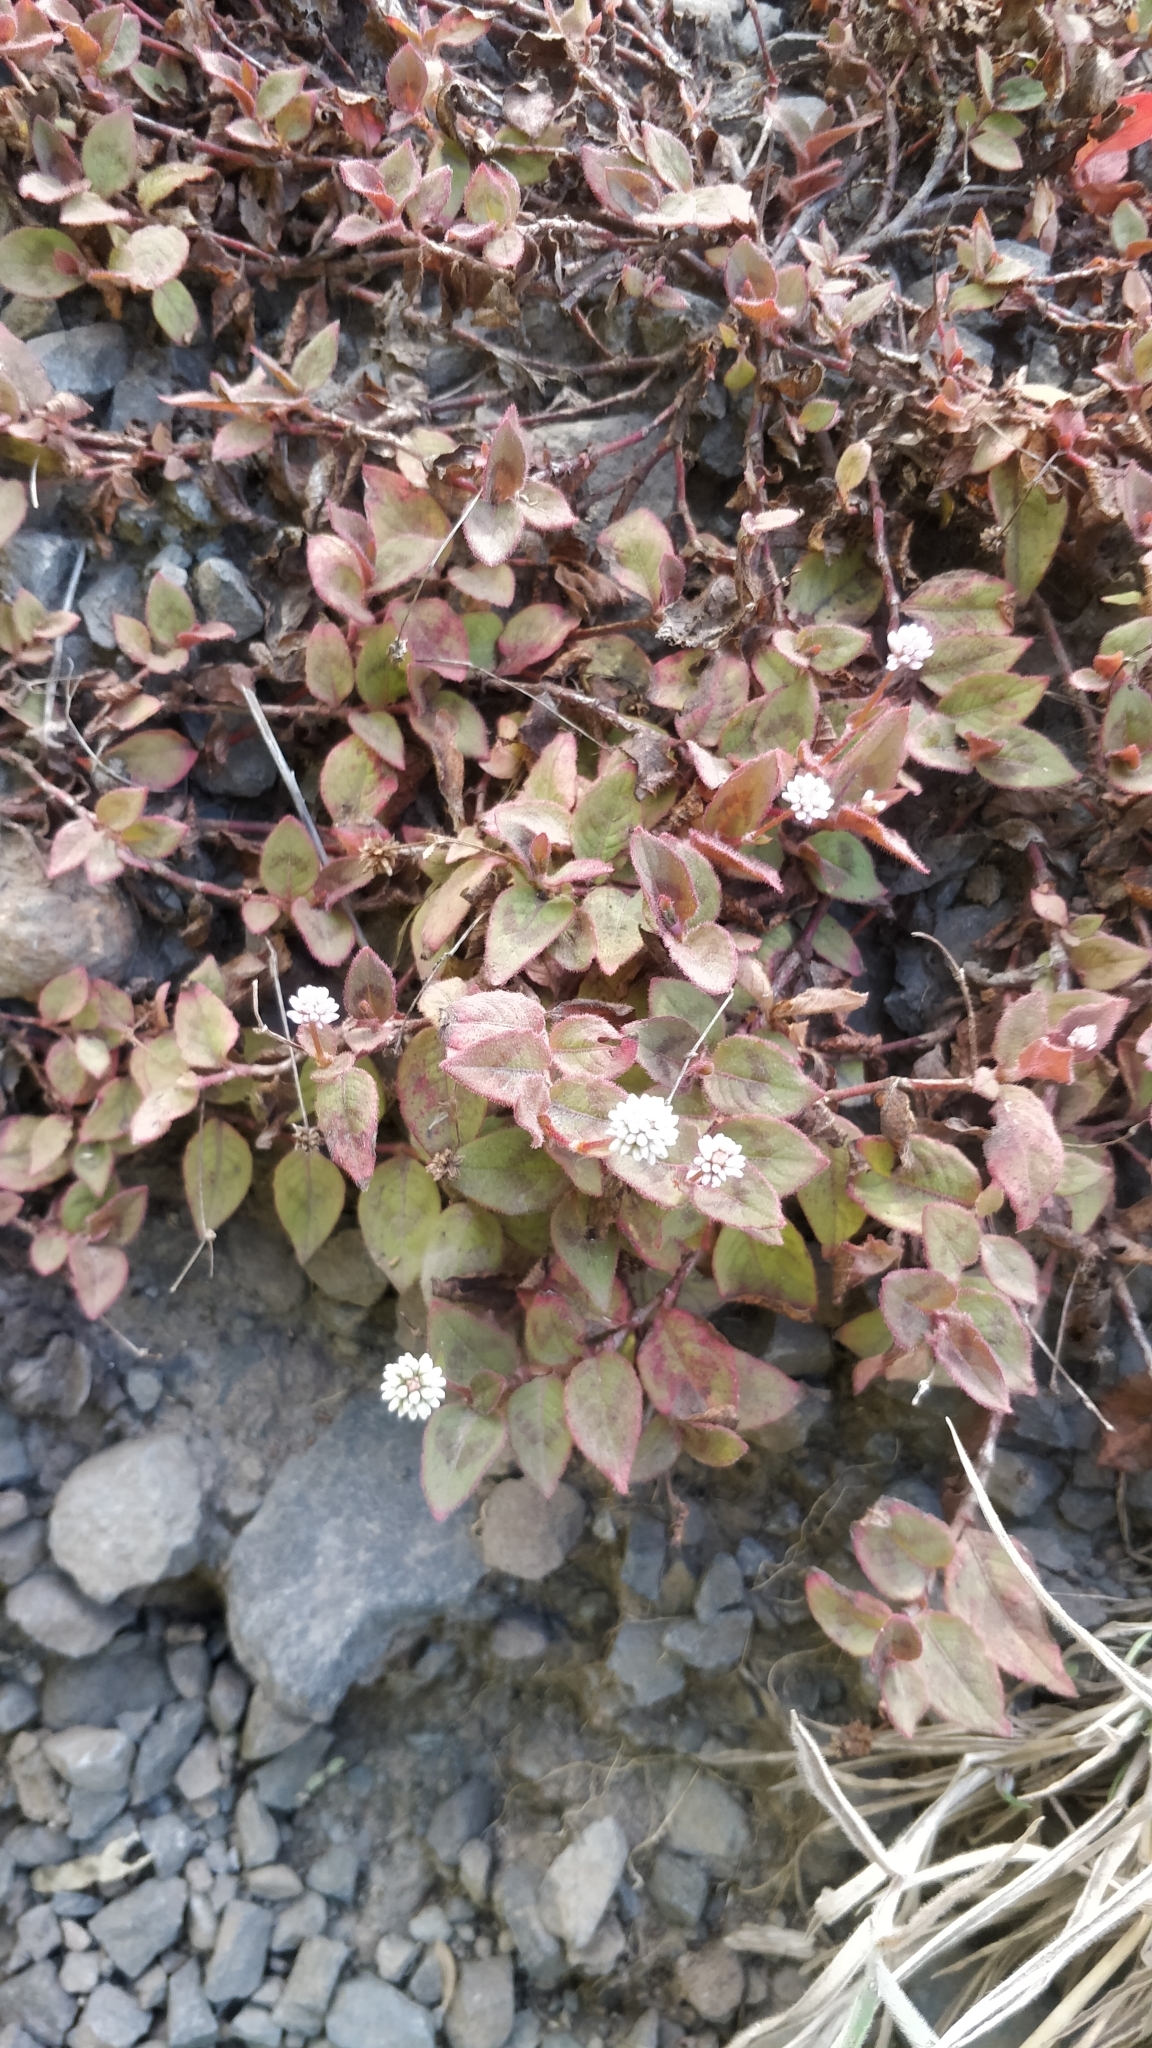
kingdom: Plantae
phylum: Tracheophyta
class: Magnoliopsida
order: Caryophyllales
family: Polygonaceae
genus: Persicaria
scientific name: Persicaria capitata
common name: Pinkhead smartweed
